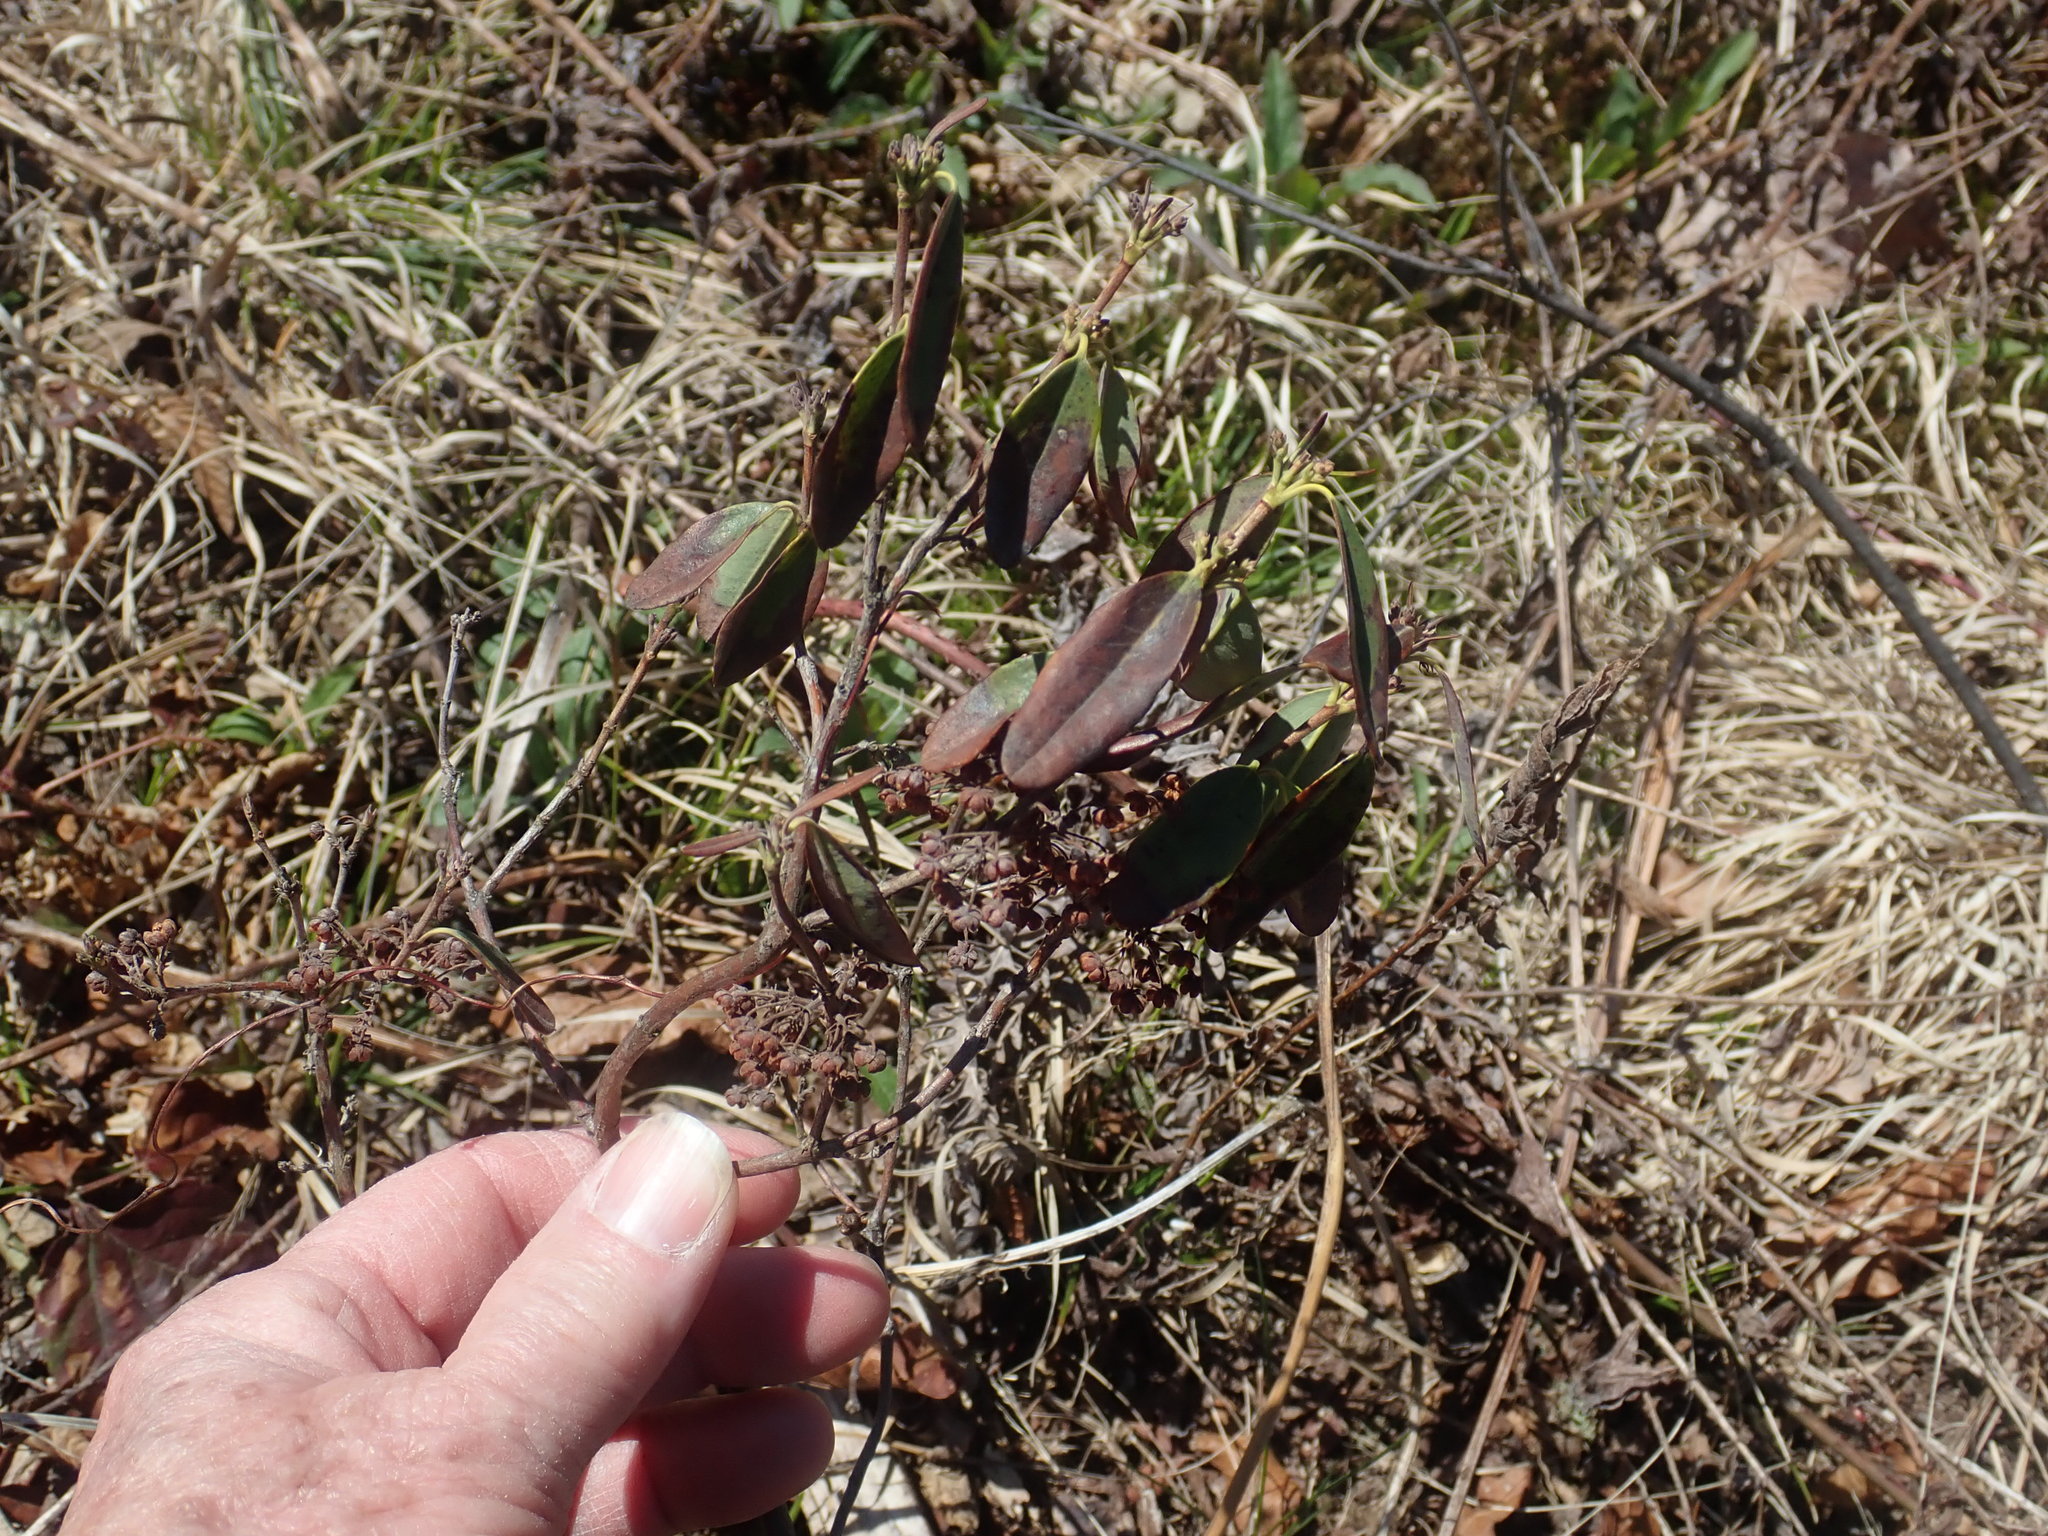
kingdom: Plantae
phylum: Tracheophyta
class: Magnoliopsida
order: Ericales
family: Ericaceae
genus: Kalmia
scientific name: Kalmia angustifolia
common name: Sheep-laurel
